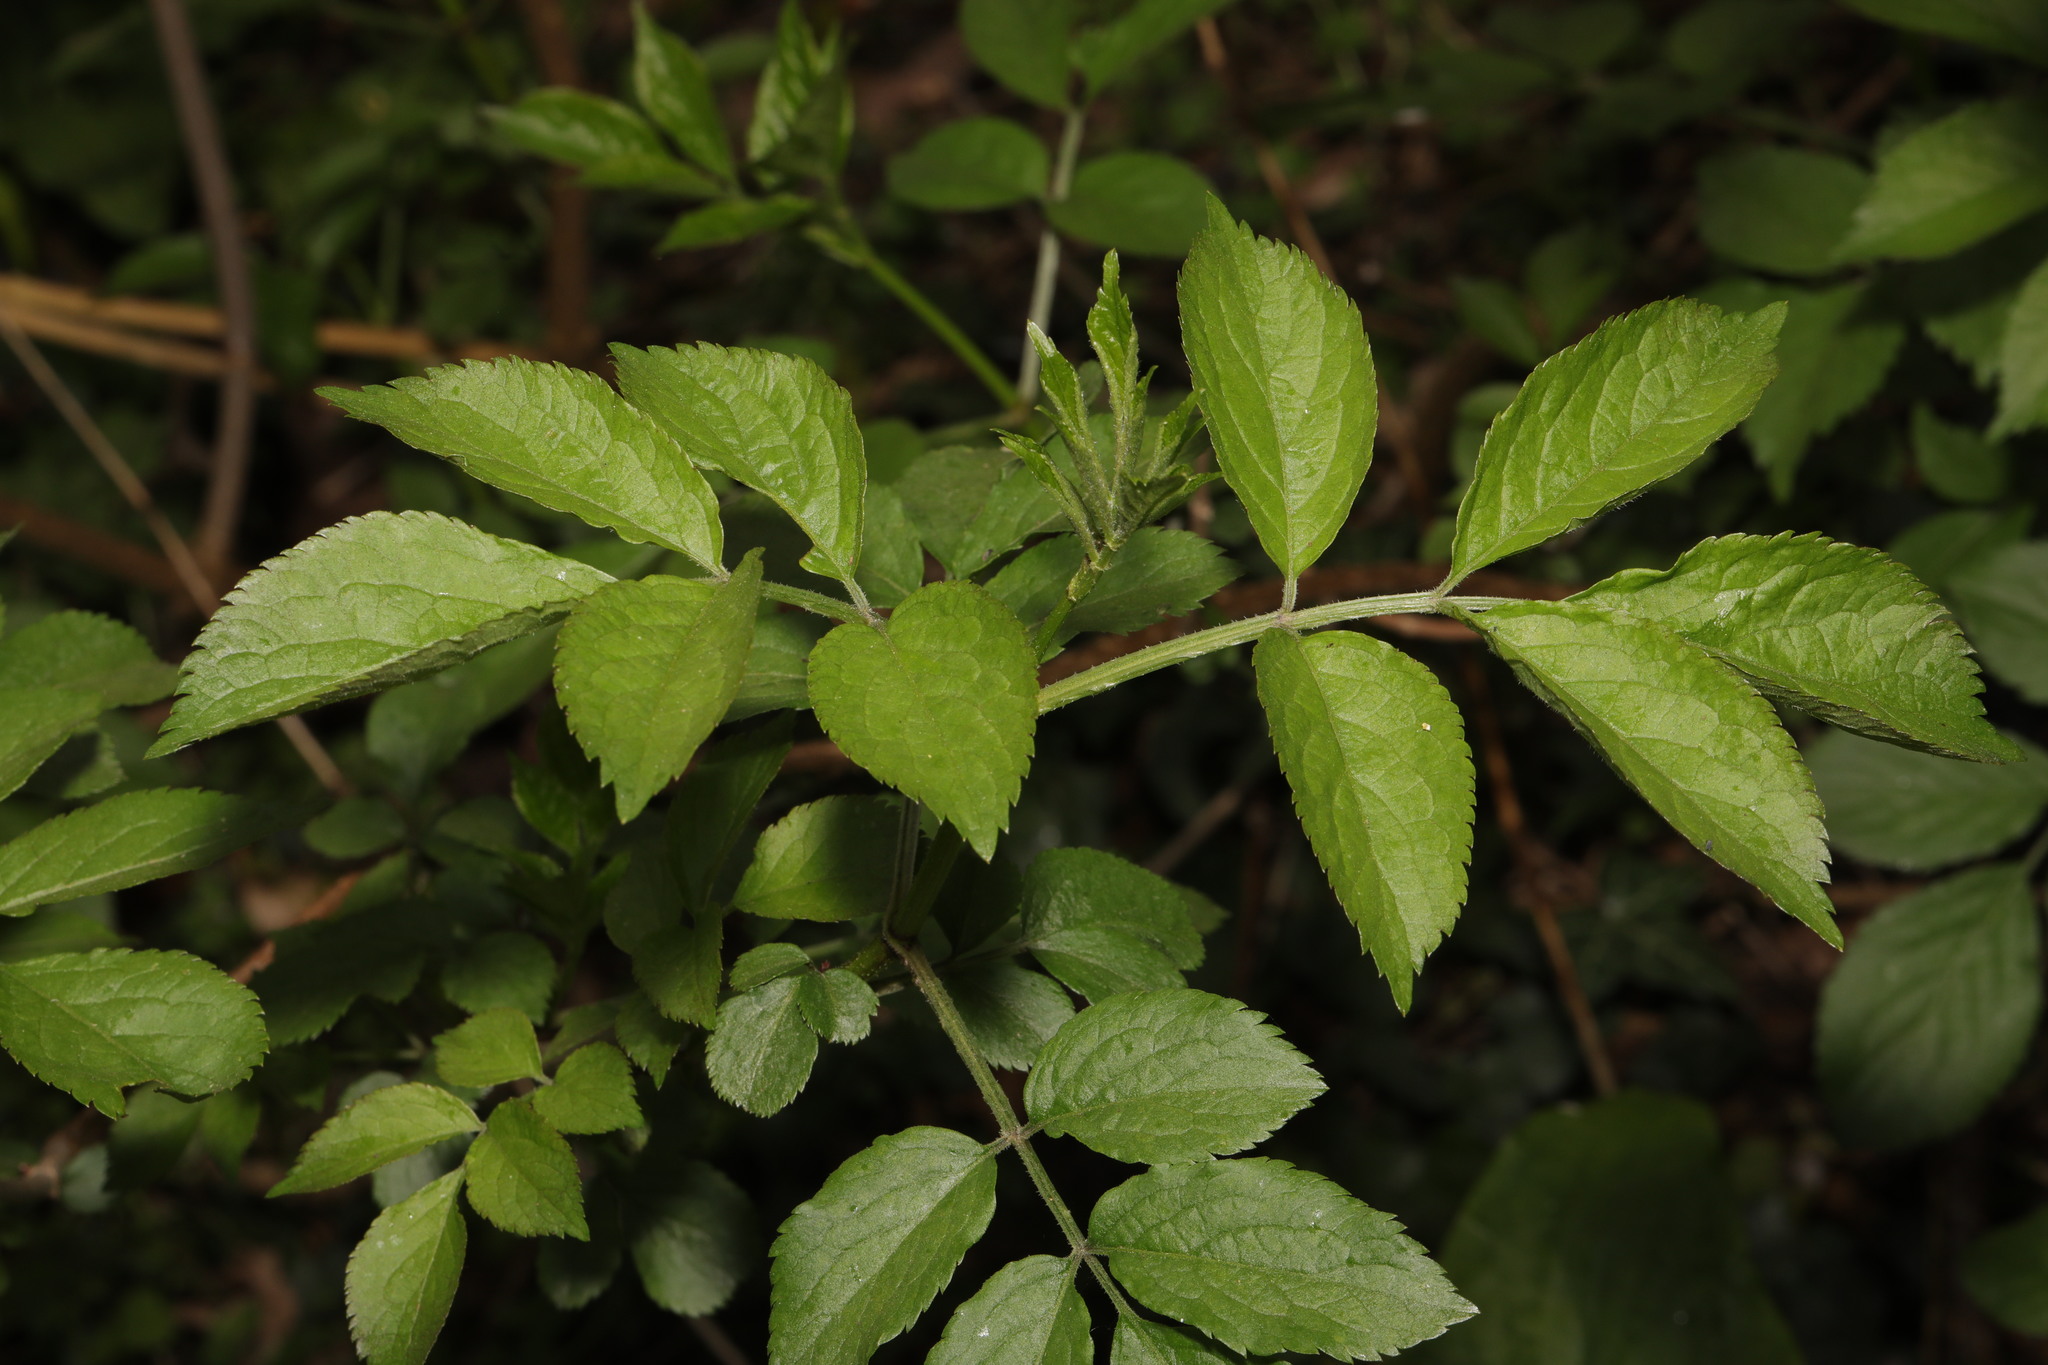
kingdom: Plantae
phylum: Tracheophyta
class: Magnoliopsida
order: Dipsacales
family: Viburnaceae
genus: Sambucus
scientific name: Sambucus nigra
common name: Elder
